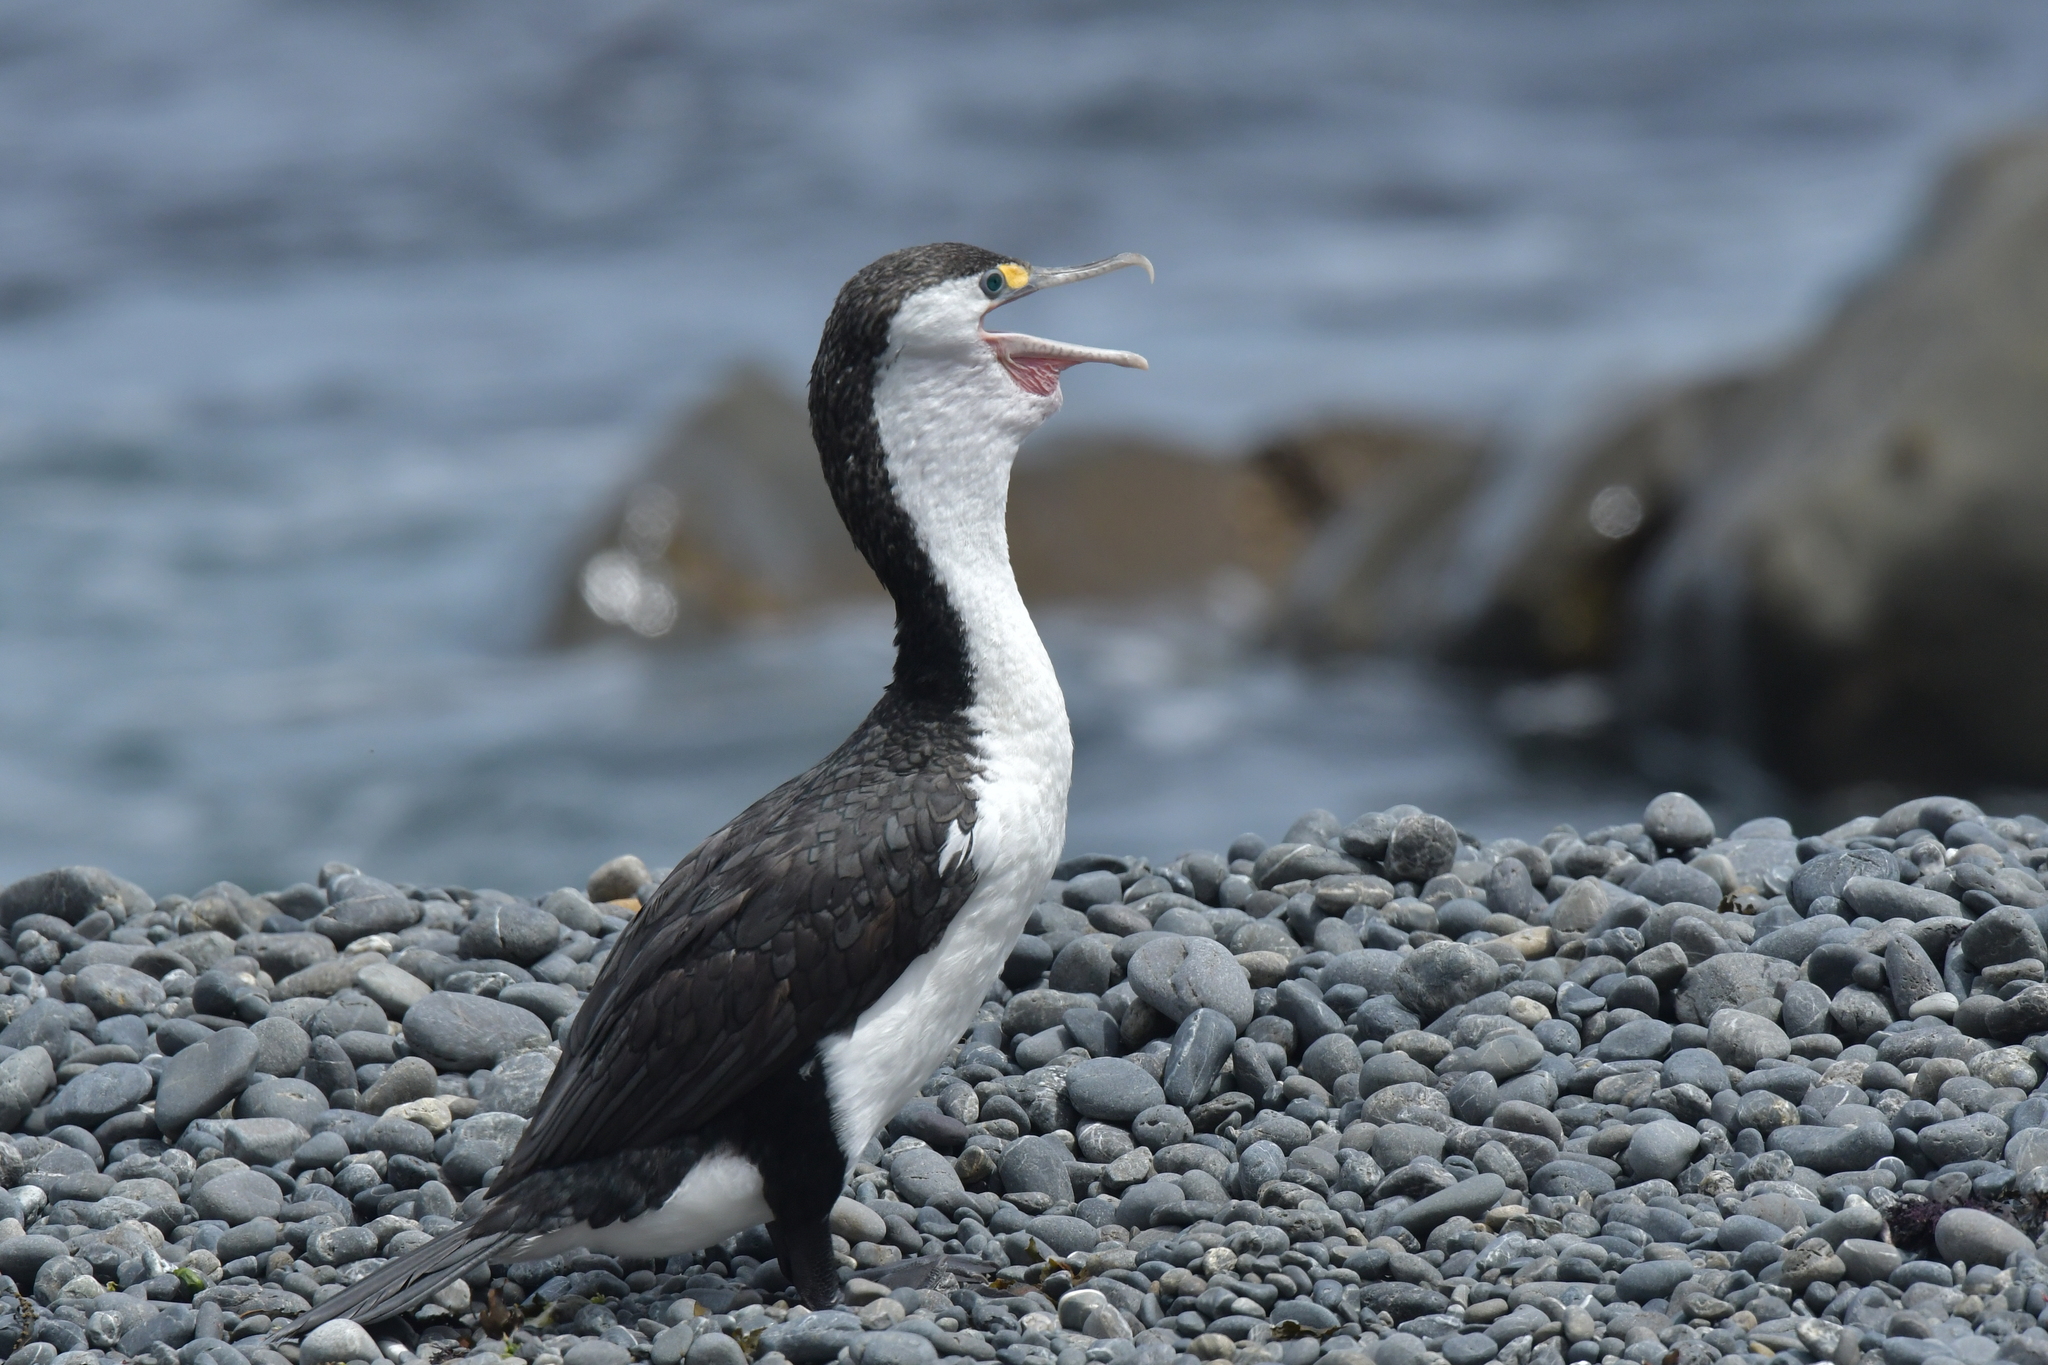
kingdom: Animalia
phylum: Chordata
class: Aves
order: Suliformes
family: Phalacrocoracidae
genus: Phalacrocorax
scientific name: Phalacrocorax varius
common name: Pied cormorant
